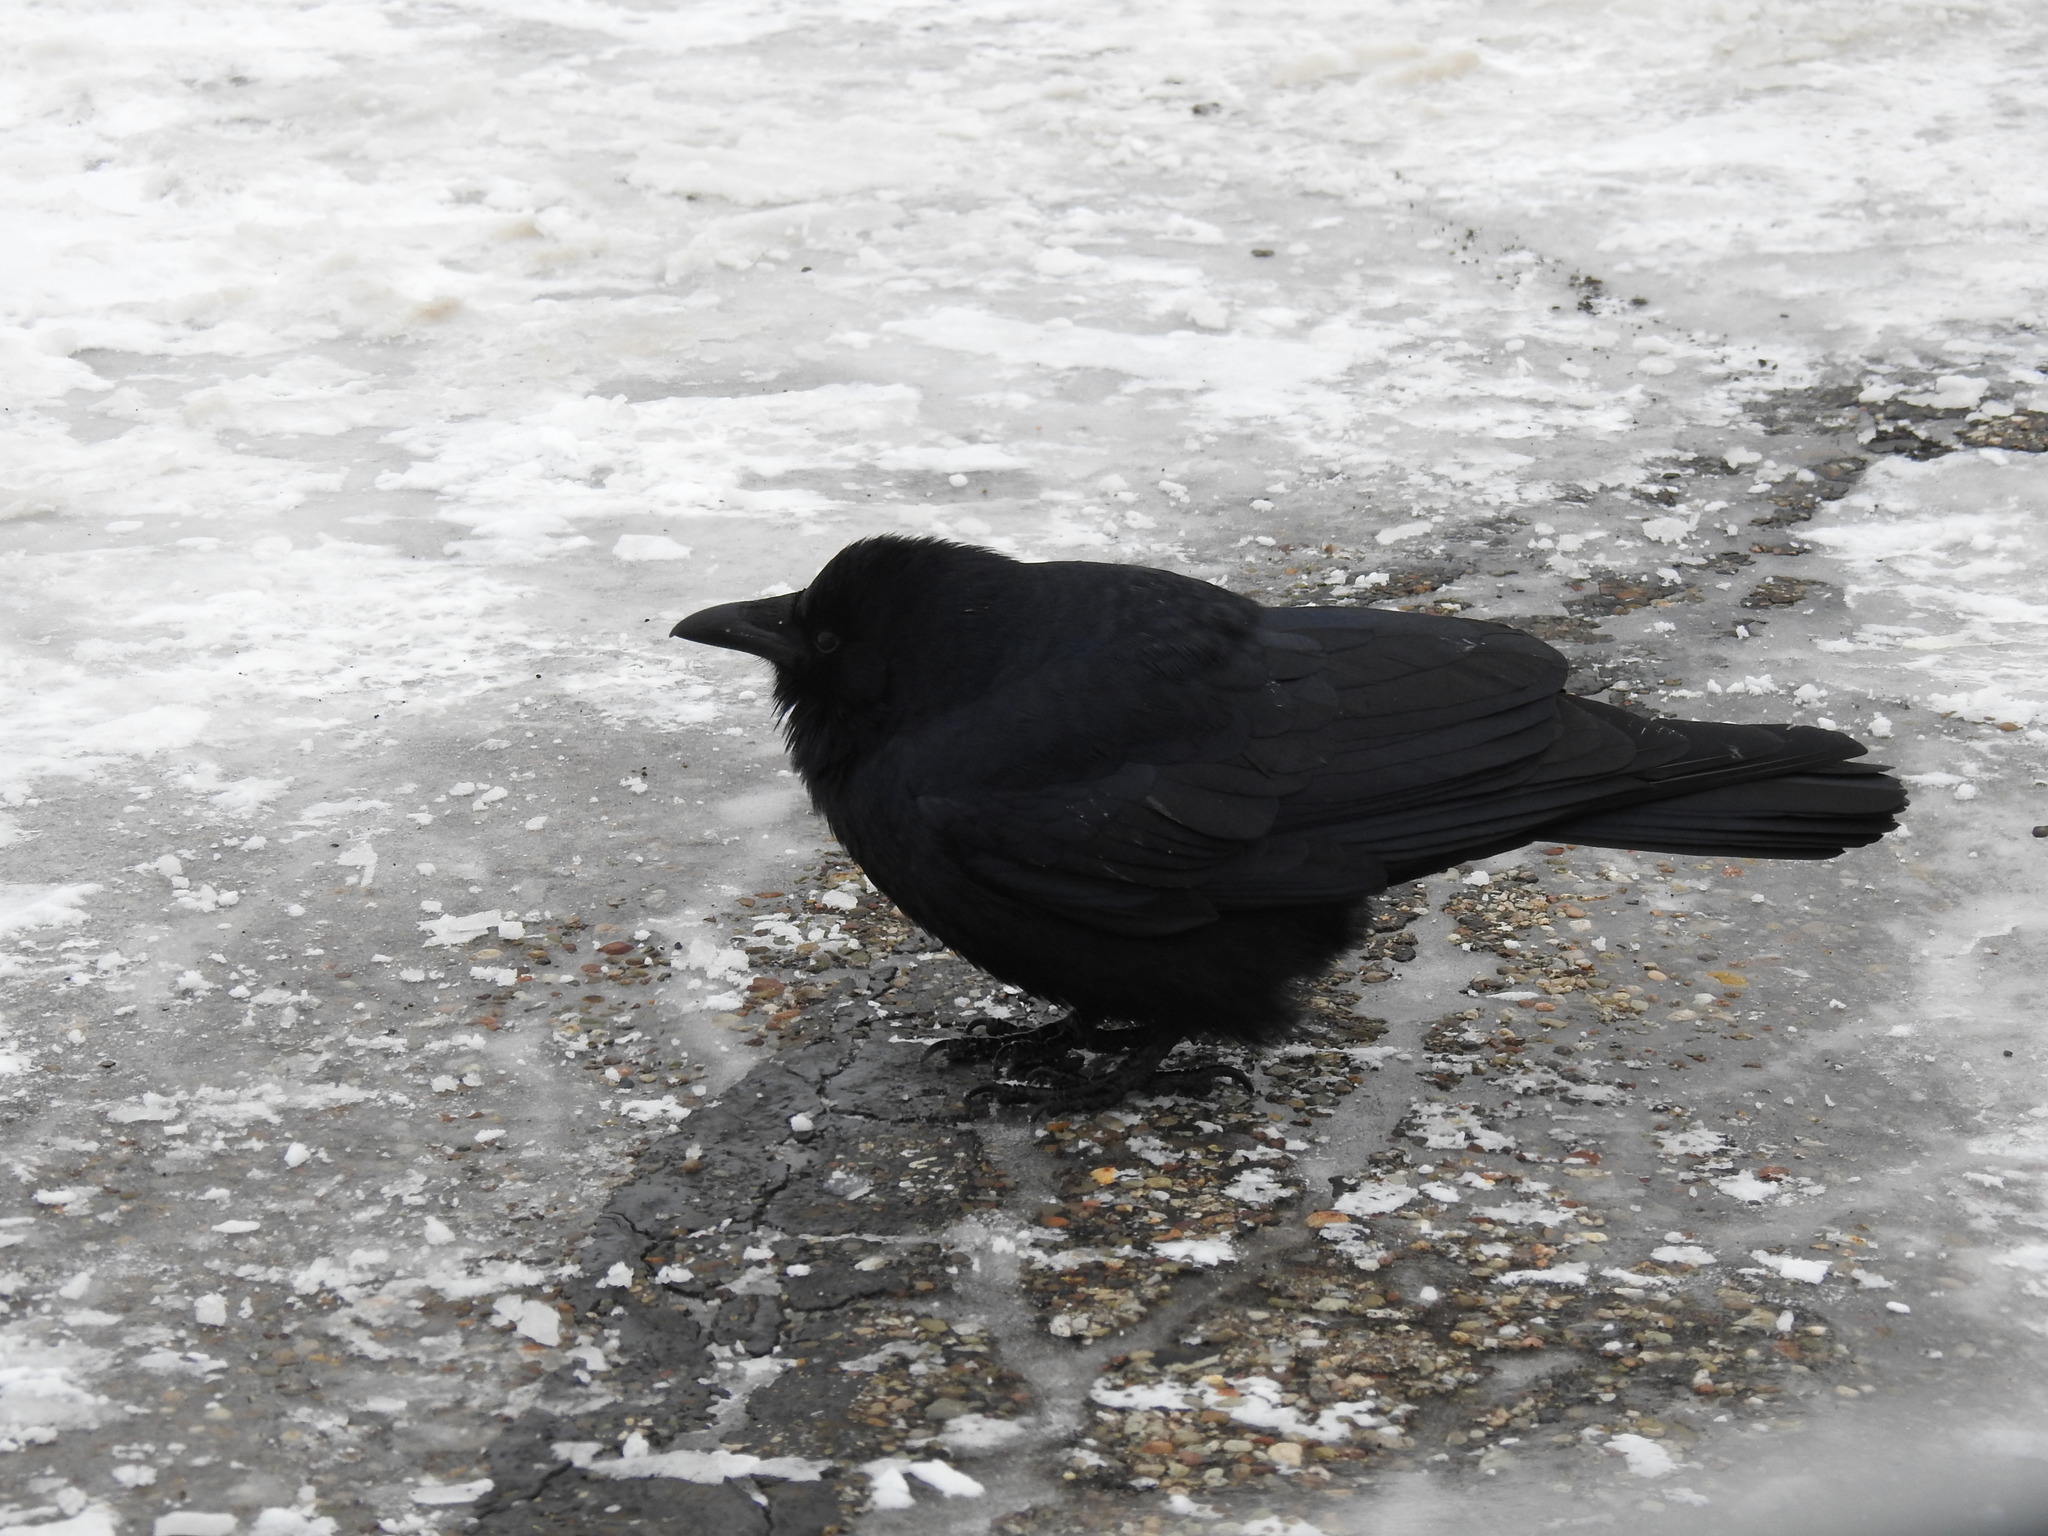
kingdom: Animalia
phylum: Chordata
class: Aves
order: Passeriformes
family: Corvidae
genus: Corvus
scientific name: Corvus ossifragus
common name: Fish crow
